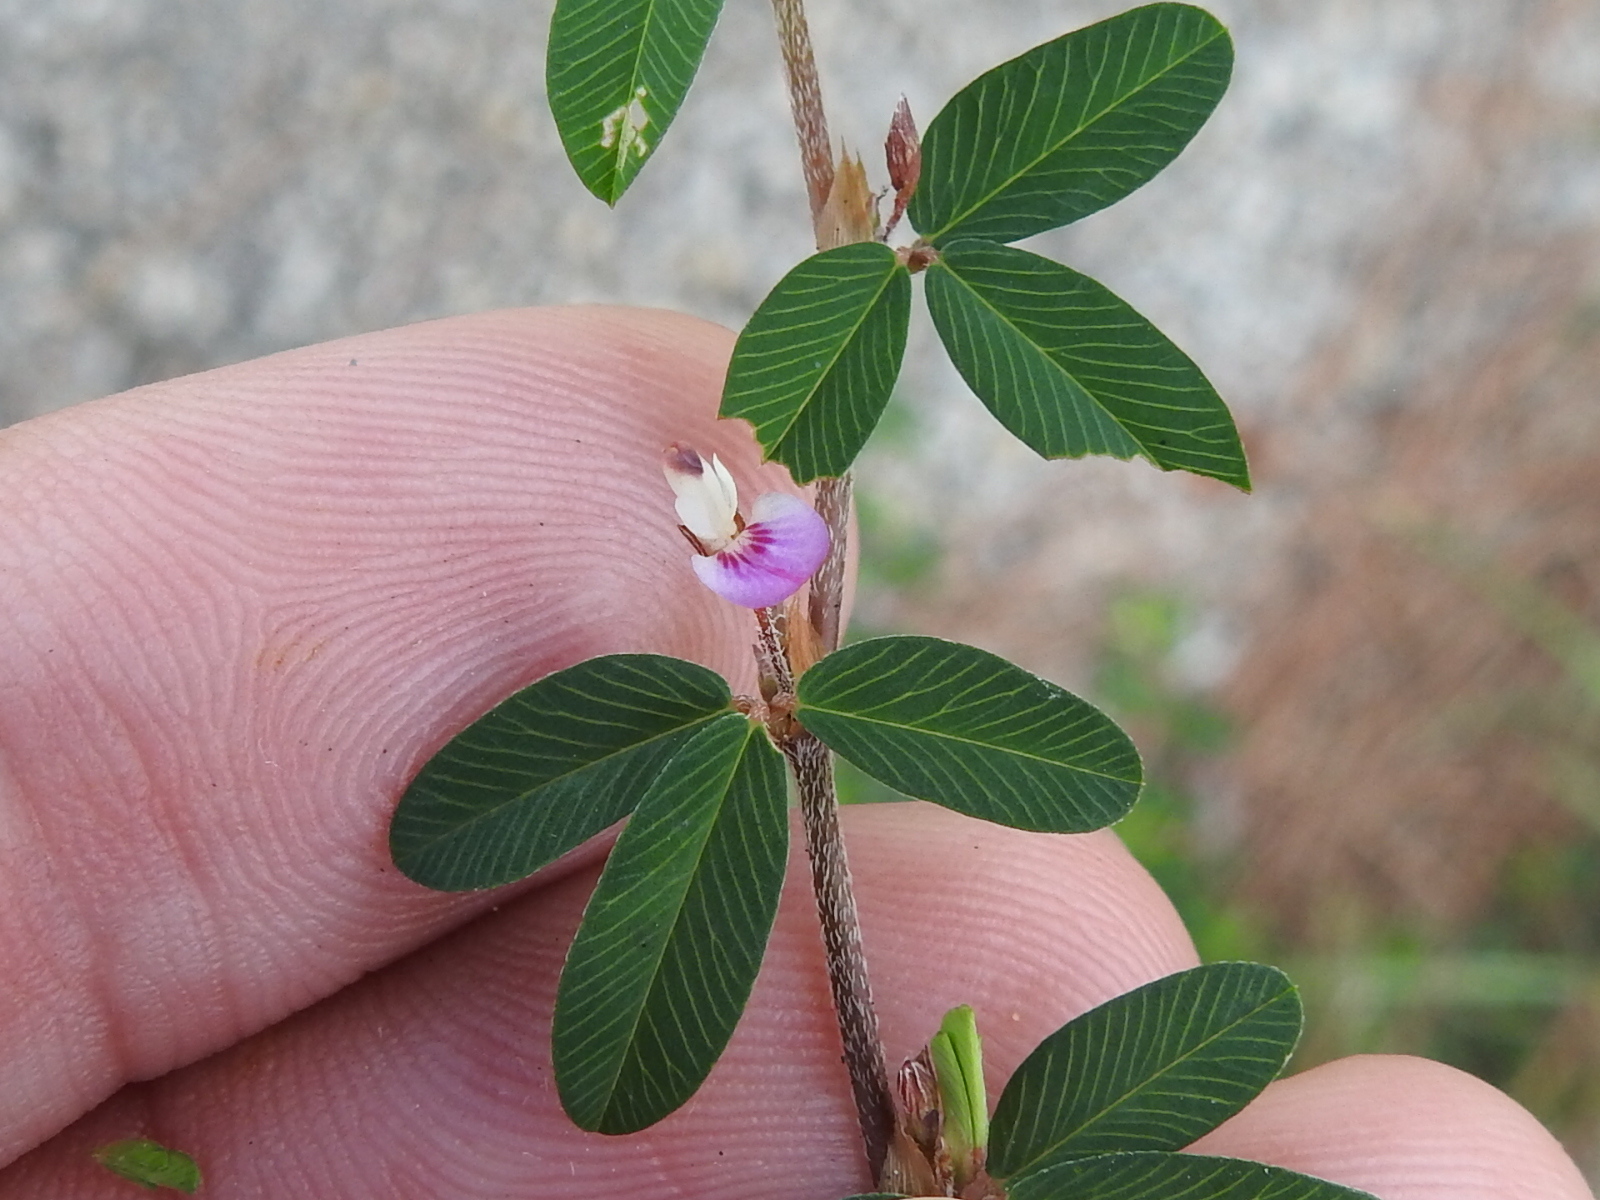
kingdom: Plantae
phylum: Tracheophyta
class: Magnoliopsida
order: Fabales
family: Fabaceae
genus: Kummerowia
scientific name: Kummerowia striata
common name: Japanese clover
